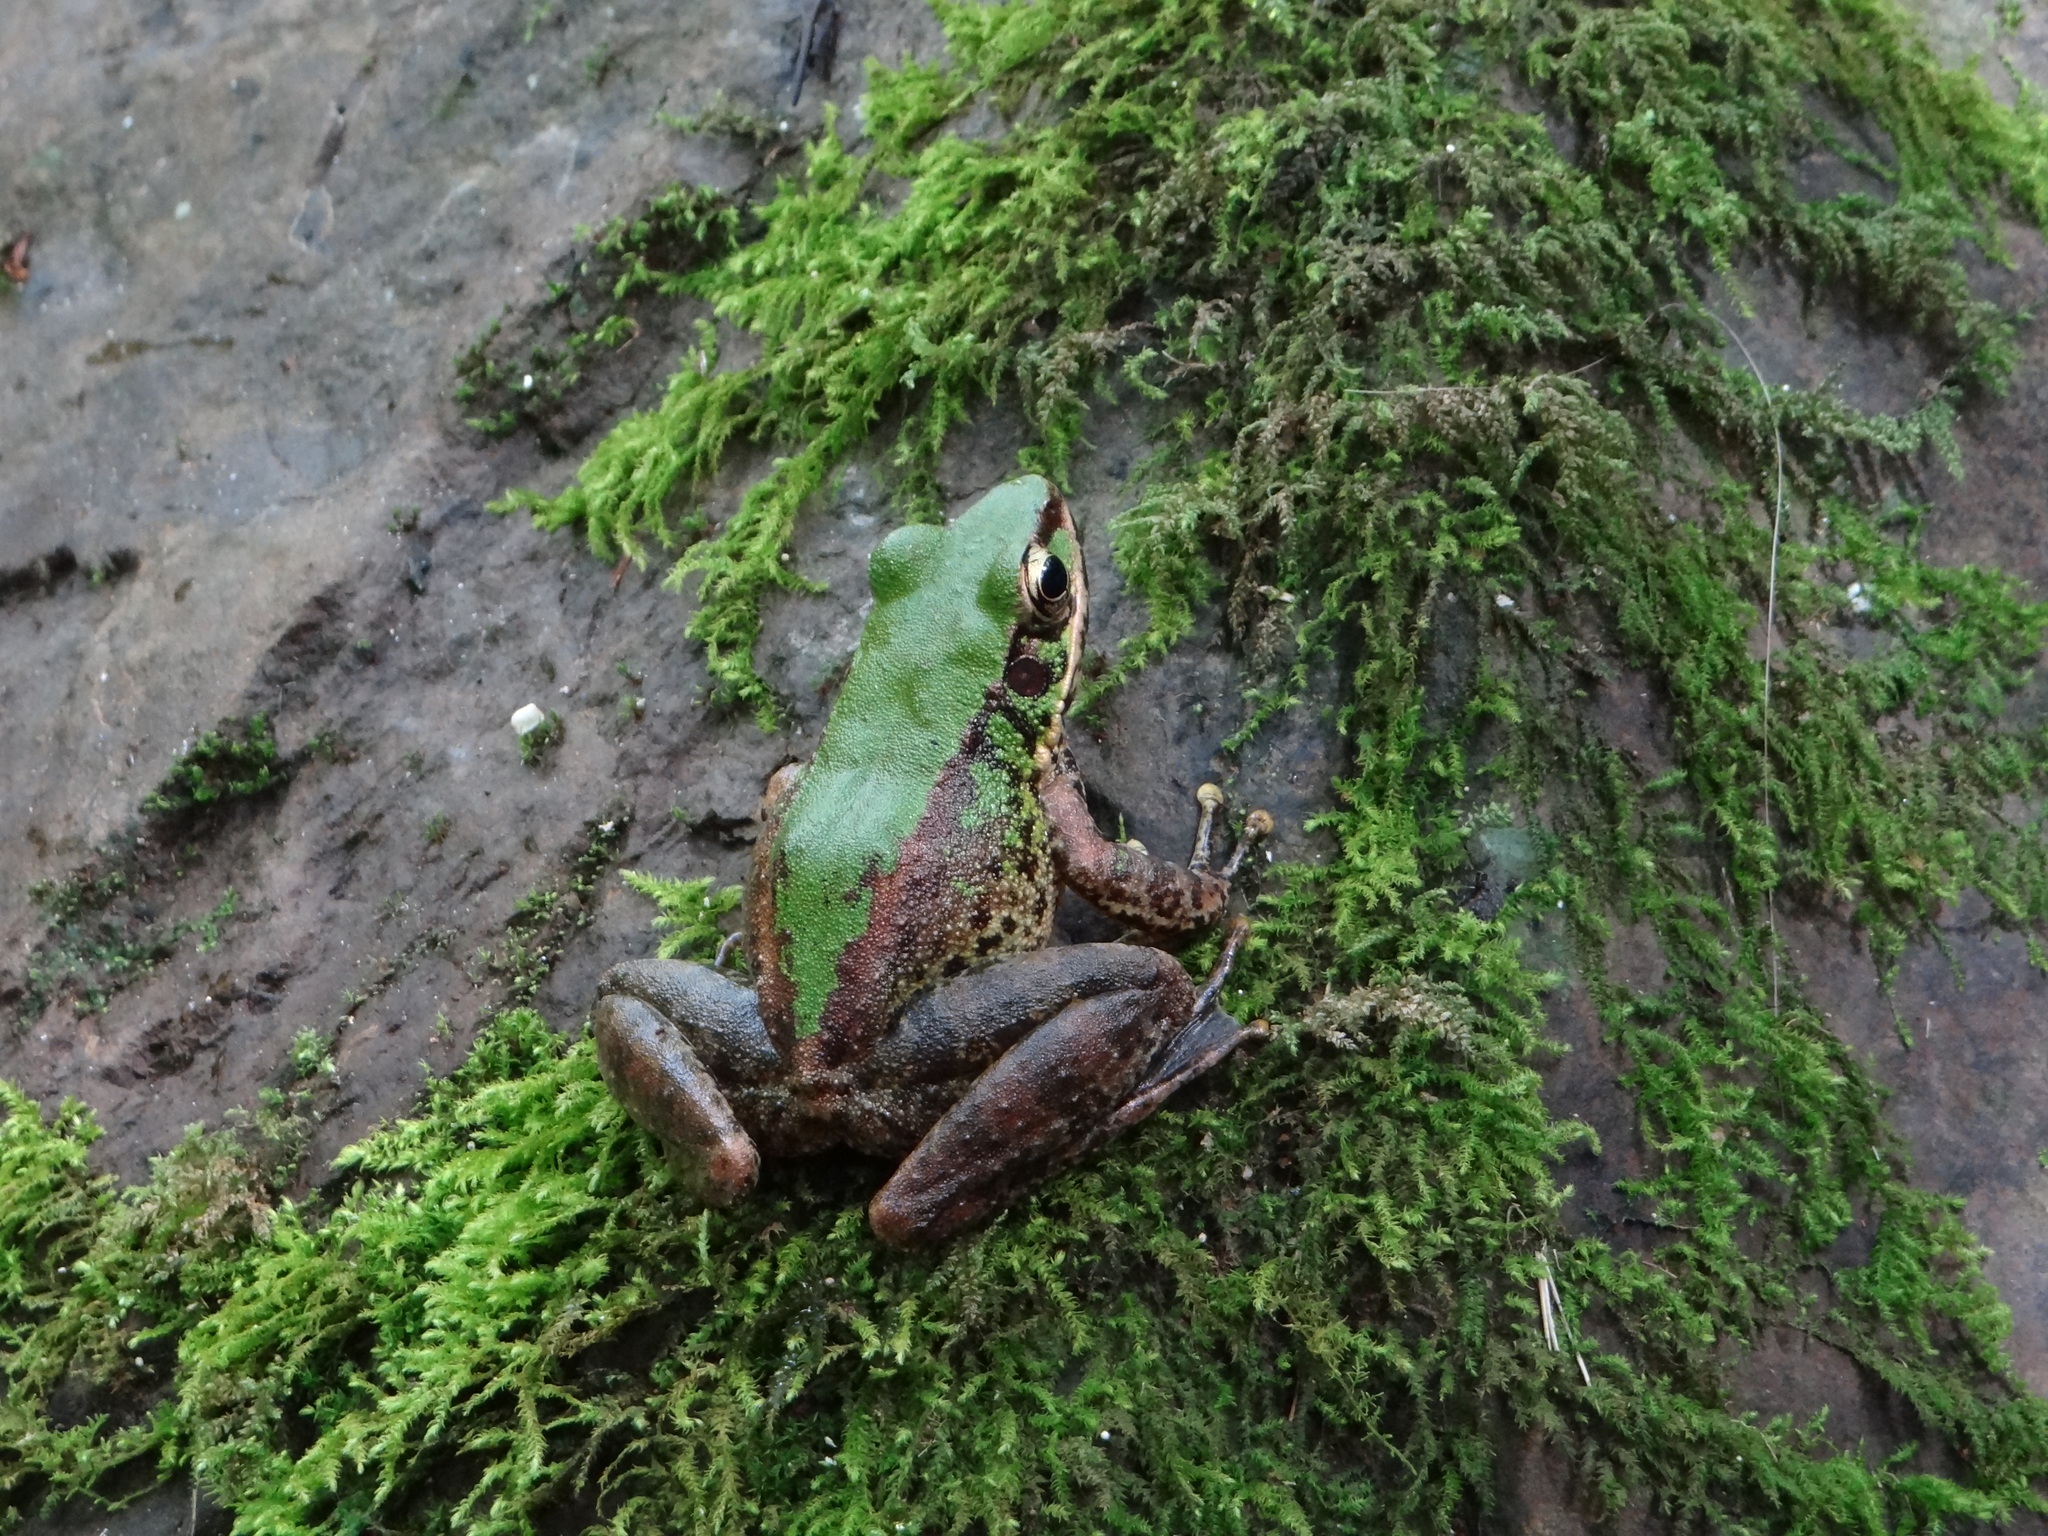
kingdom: Animalia
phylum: Chordata
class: Amphibia
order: Anura
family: Ranidae
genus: Odorrana
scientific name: Odorrana swinhoana
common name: Bangkimtsing frog
